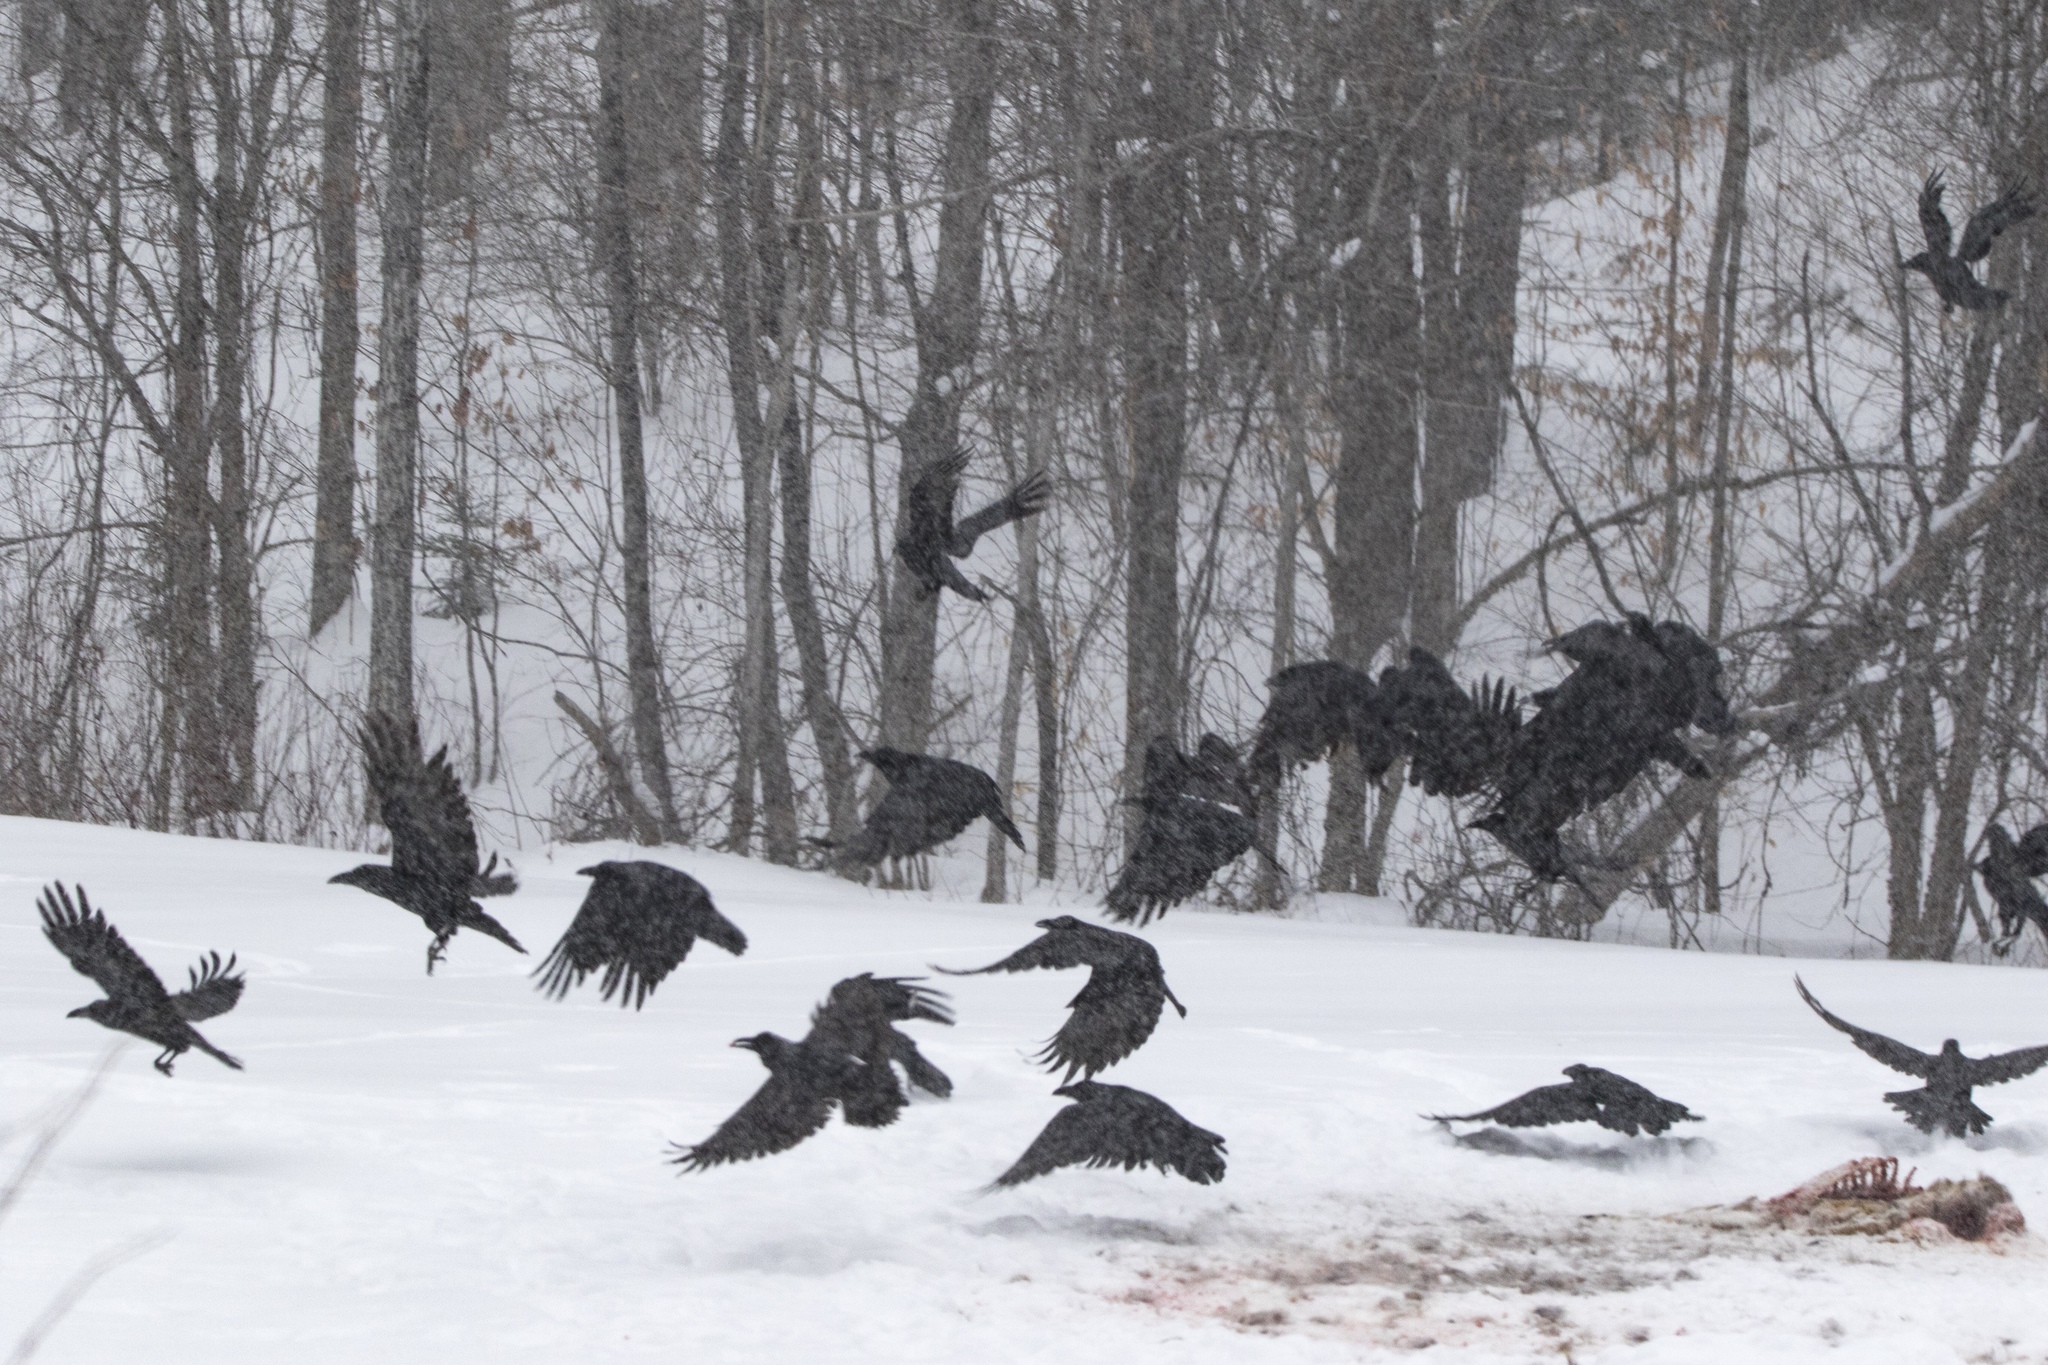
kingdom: Animalia
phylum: Chordata
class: Aves
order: Passeriformes
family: Corvidae
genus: Corvus
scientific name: Corvus corax
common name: Common raven
